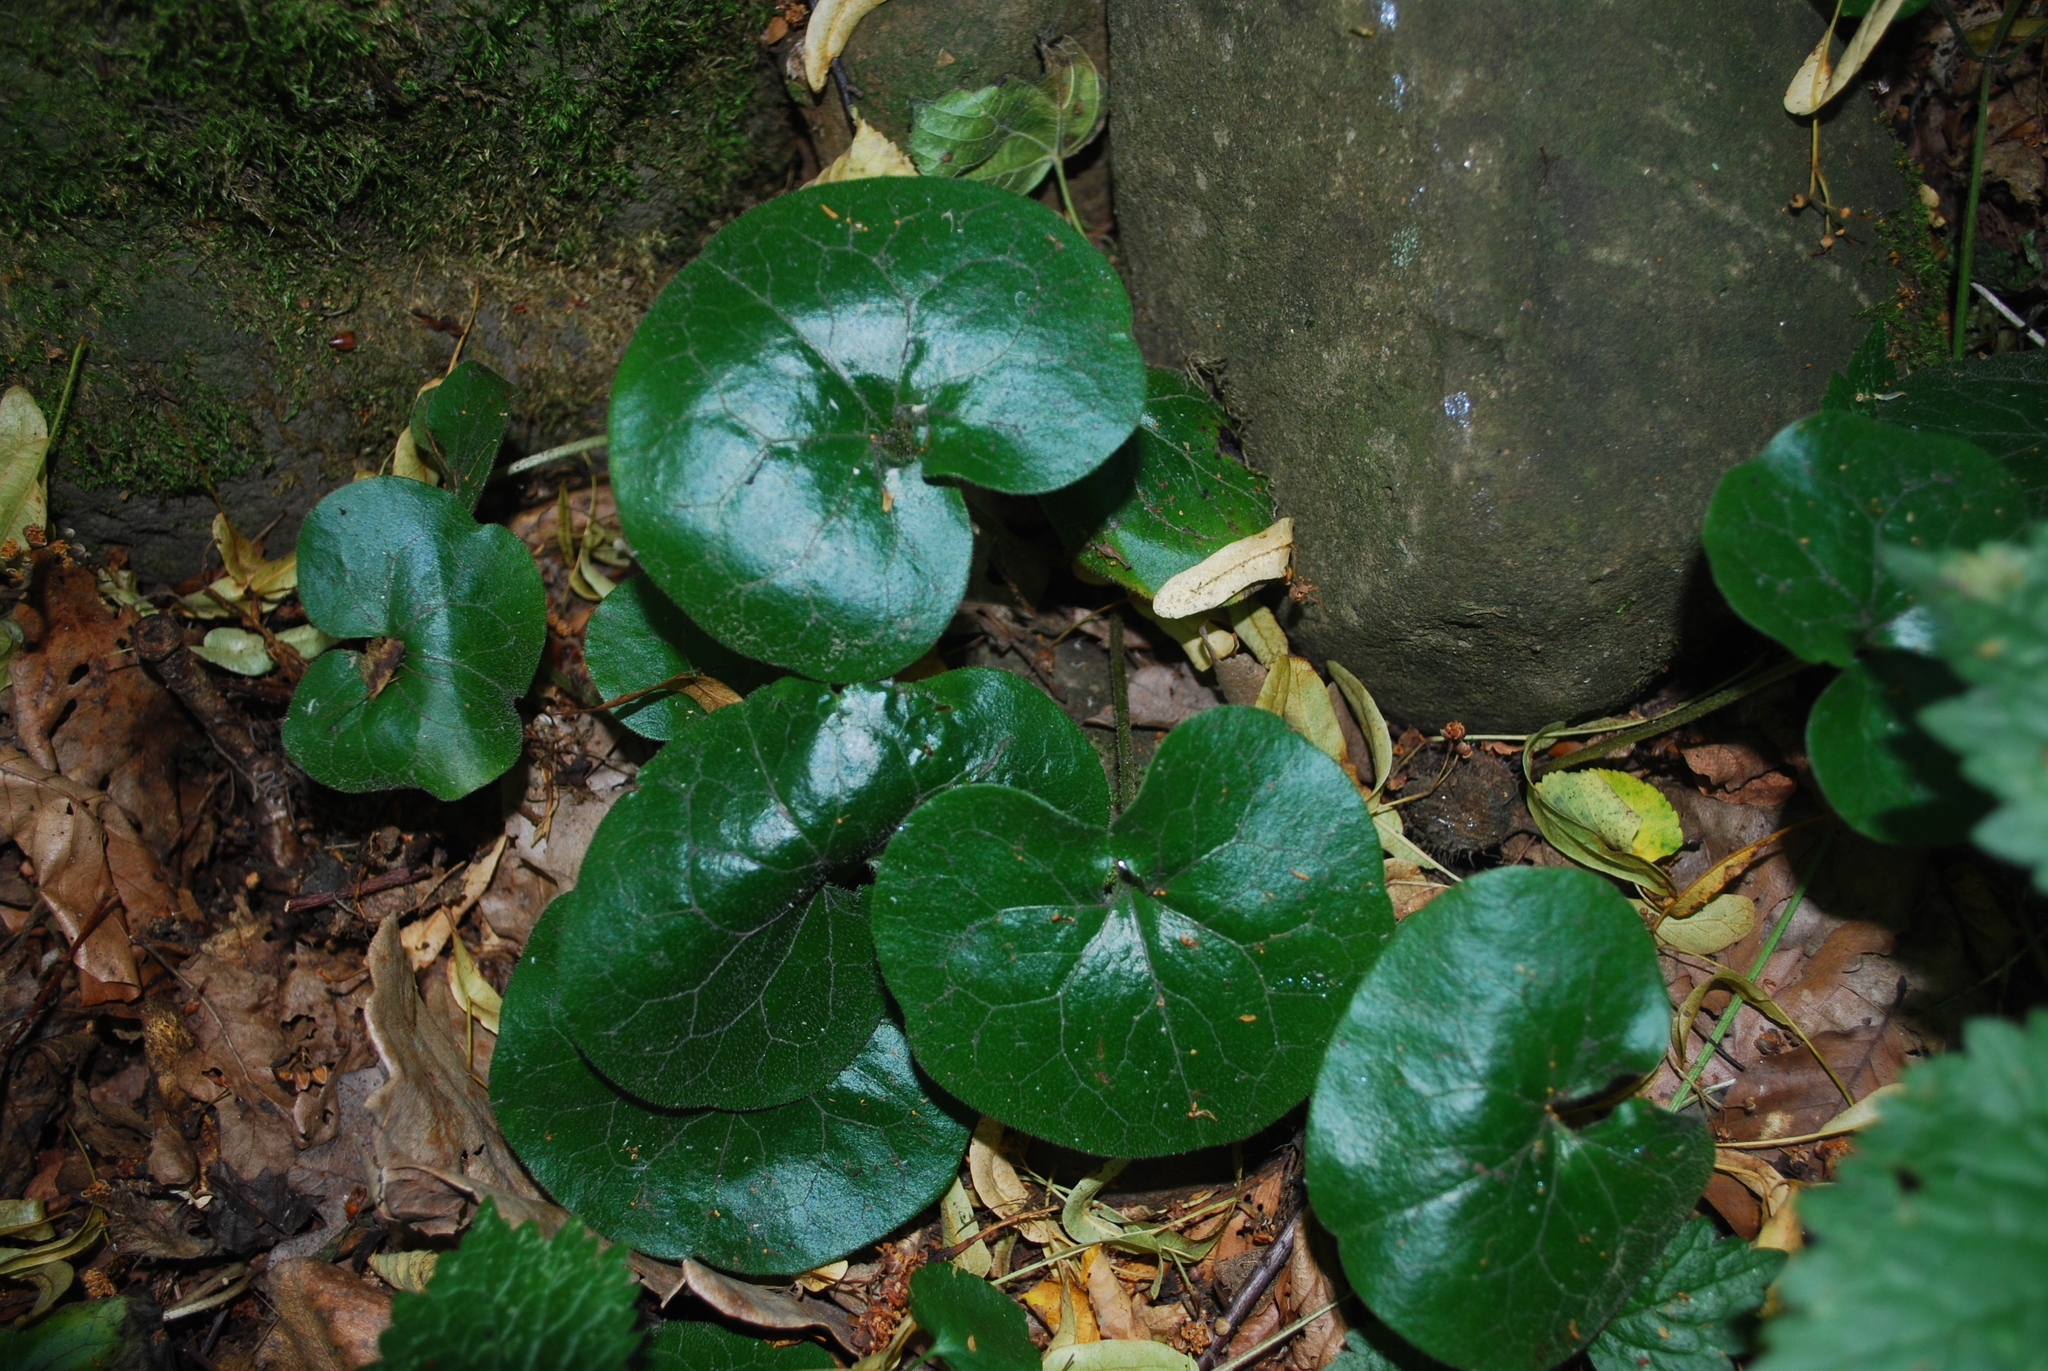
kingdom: Plantae
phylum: Tracheophyta
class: Magnoliopsida
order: Piperales
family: Aristolochiaceae
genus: Asarum
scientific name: Asarum europaeum
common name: Asarabacca
